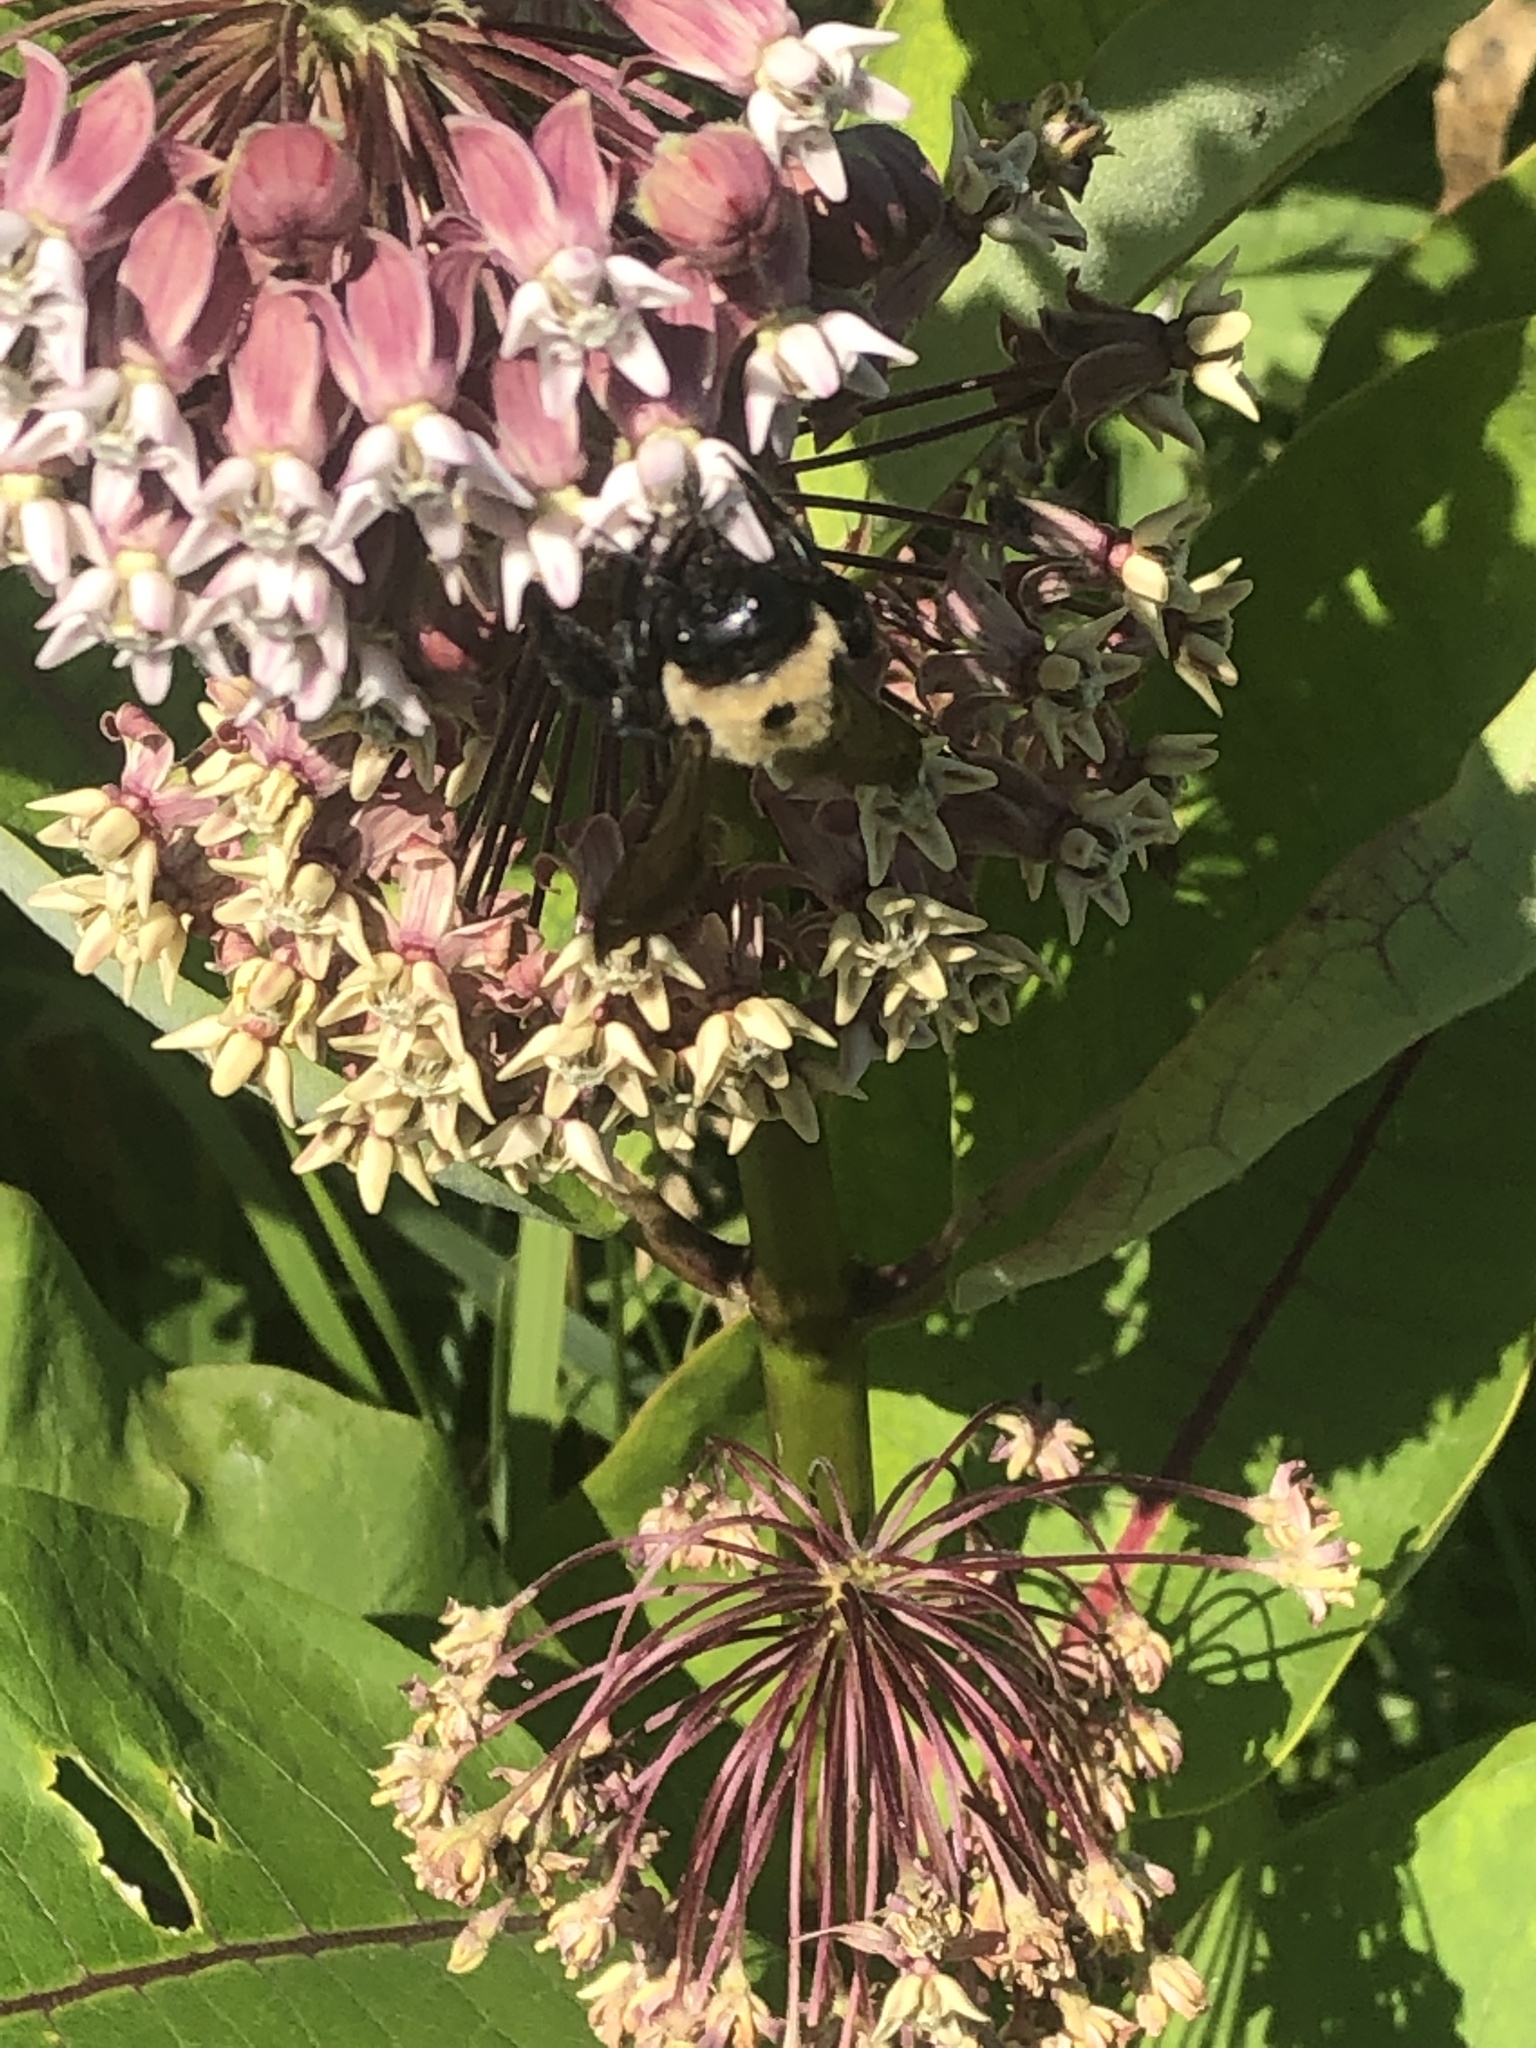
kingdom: Animalia
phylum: Arthropoda
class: Insecta
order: Hymenoptera
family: Apidae
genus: Xylocopa
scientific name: Xylocopa virginica
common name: Carpenter bee
